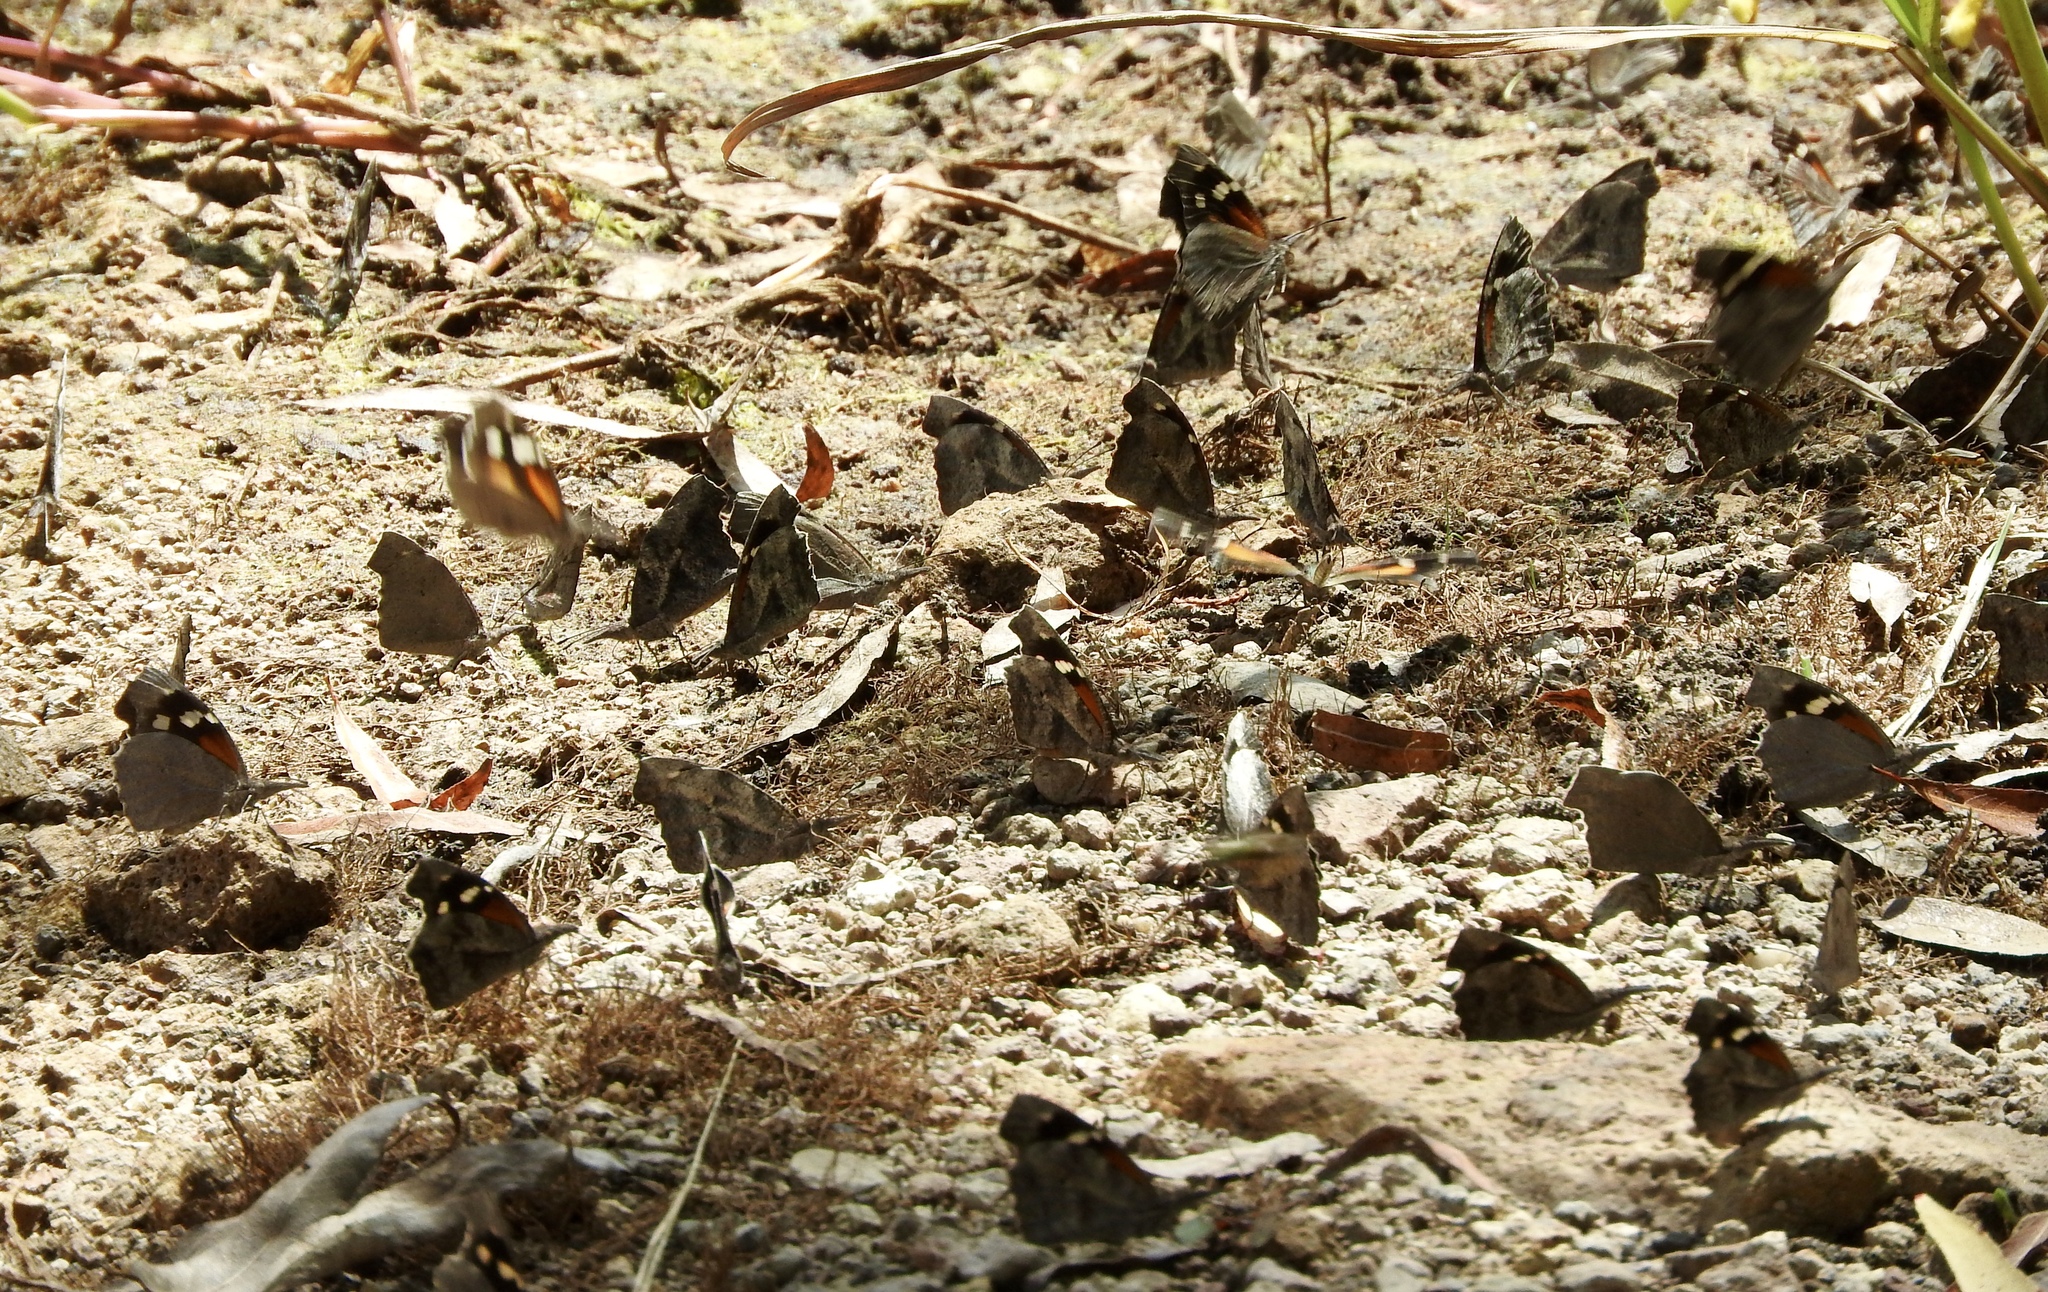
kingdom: Animalia
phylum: Arthropoda
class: Insecta
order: Lepidoptera
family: Nymphalidae
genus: Libytheana
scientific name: Libytheana carinenta
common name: American snout
